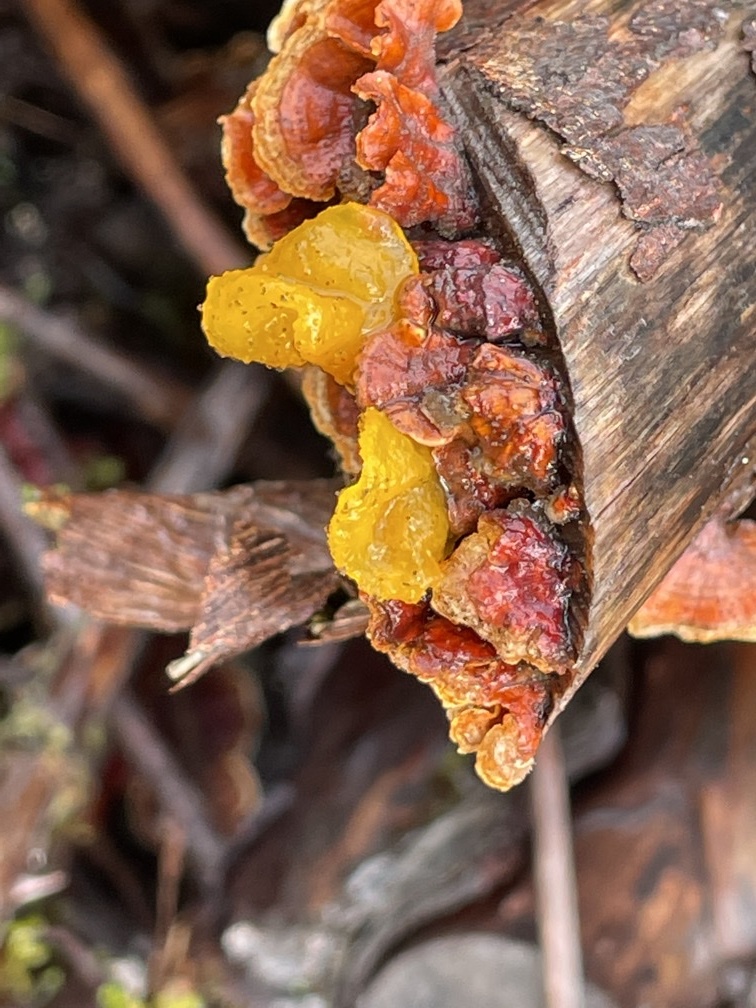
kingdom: Fungi
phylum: Basidiomycota
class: Tremellomycetes
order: Tremellales
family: Naemateliaceae
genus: Naematelia
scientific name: Naematelia aurantia
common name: Golden ear
